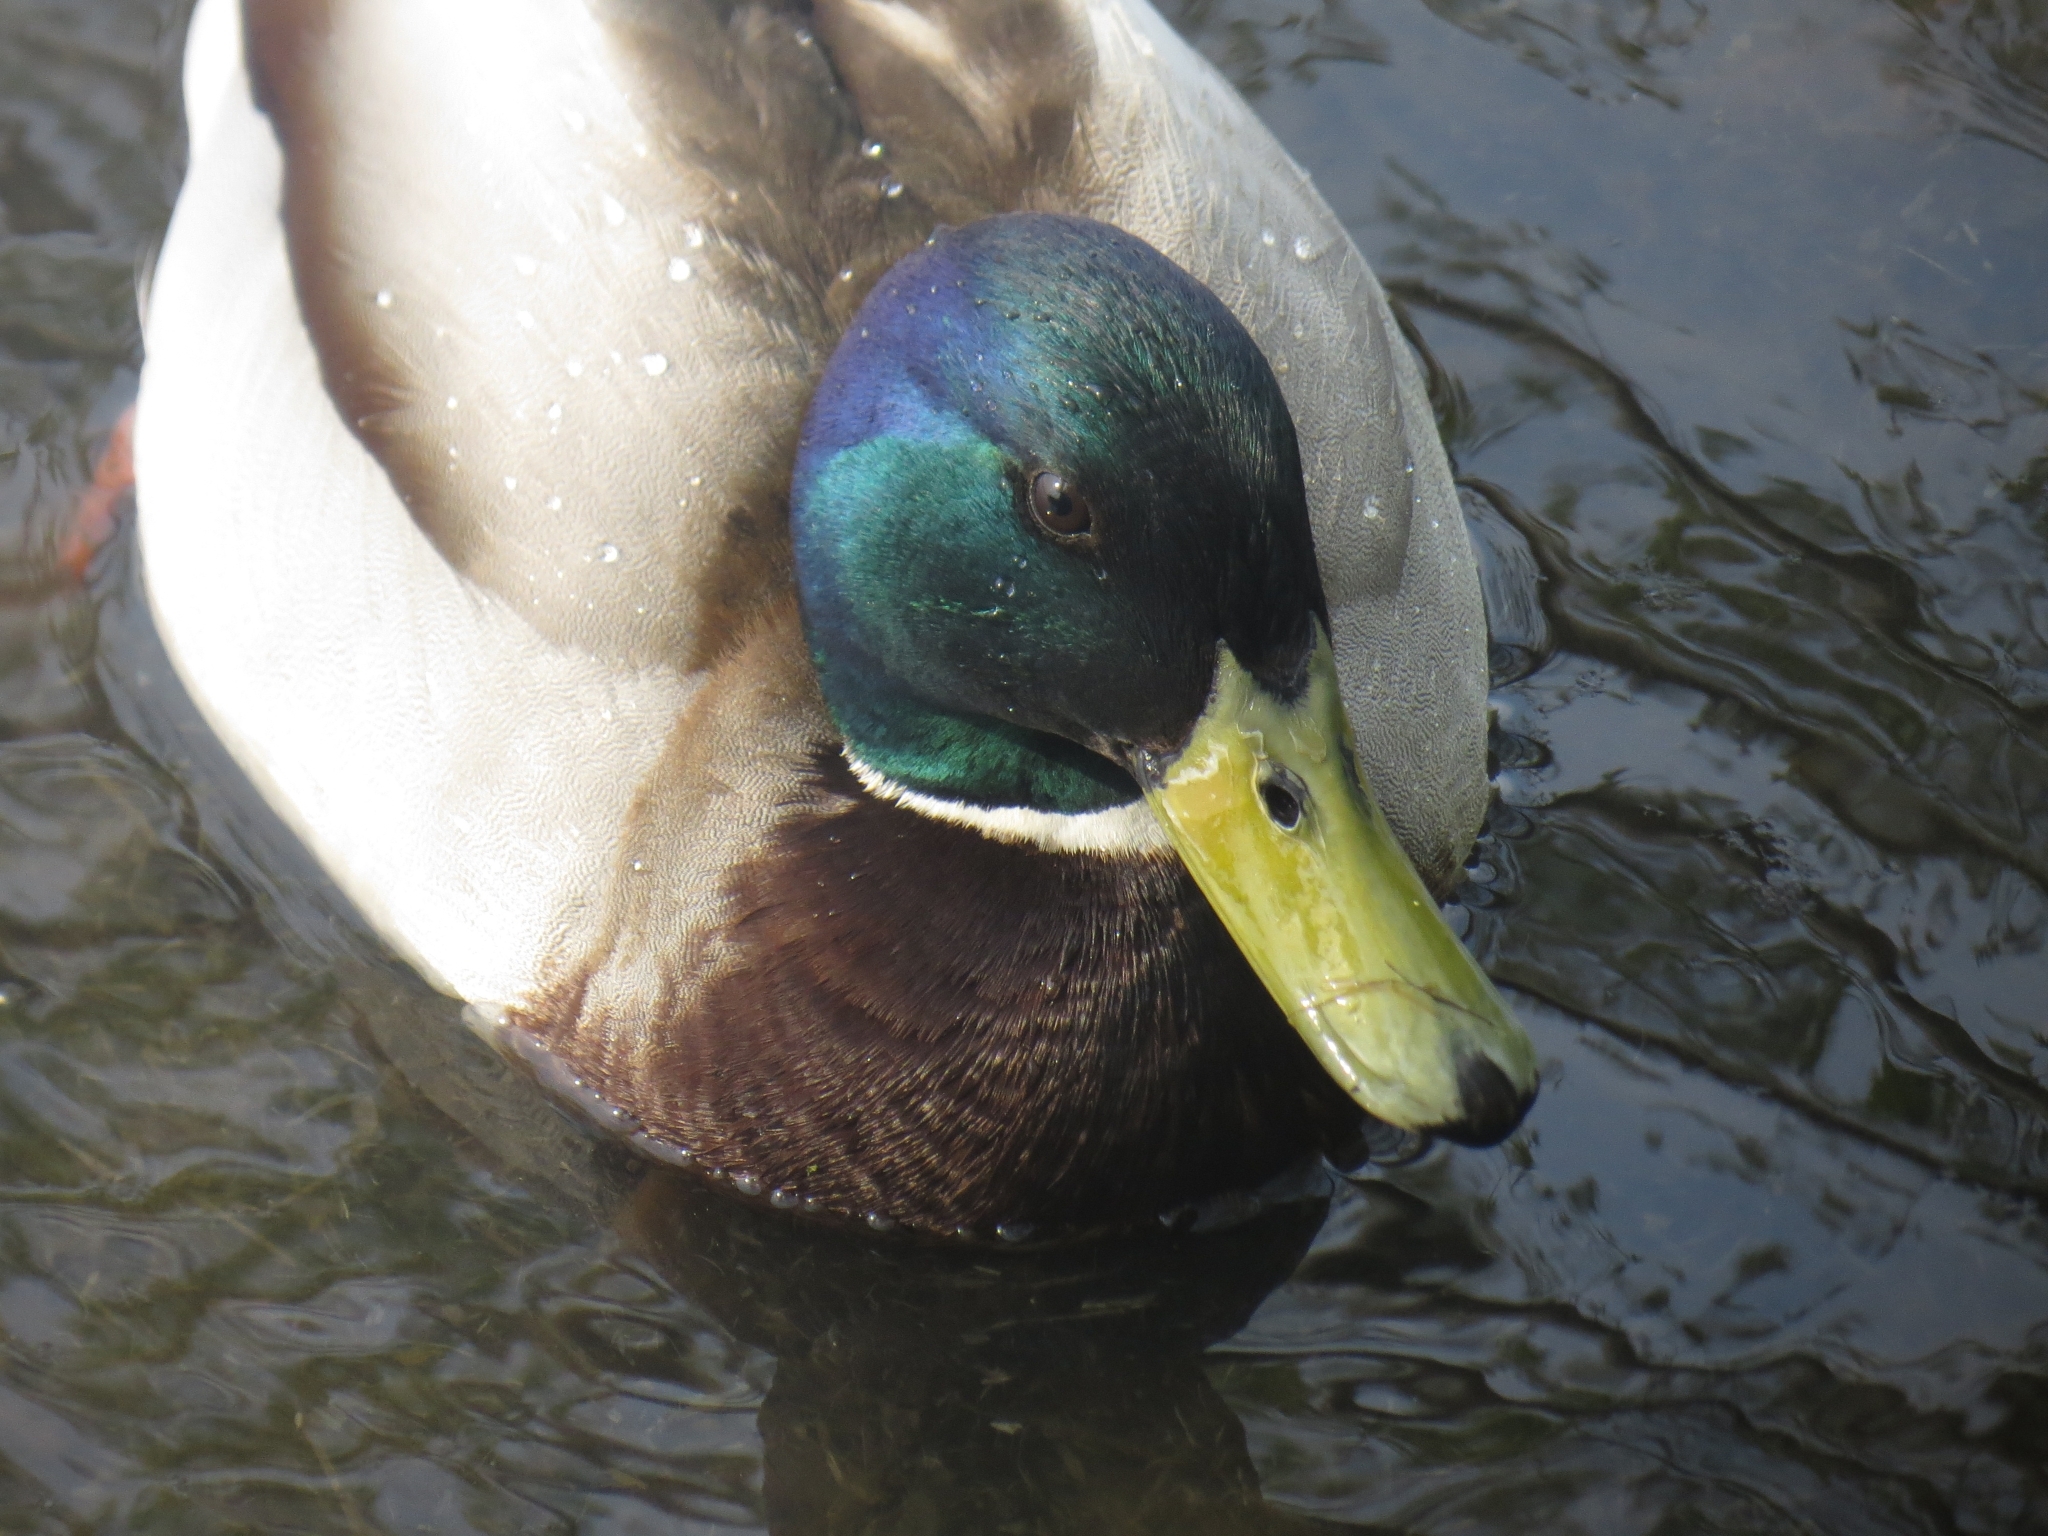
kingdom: Animalia
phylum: Chordata
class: Aves
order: Anseriformes
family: Anatidae
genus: Anas
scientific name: Anas platyrhynchos
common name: Mallard
